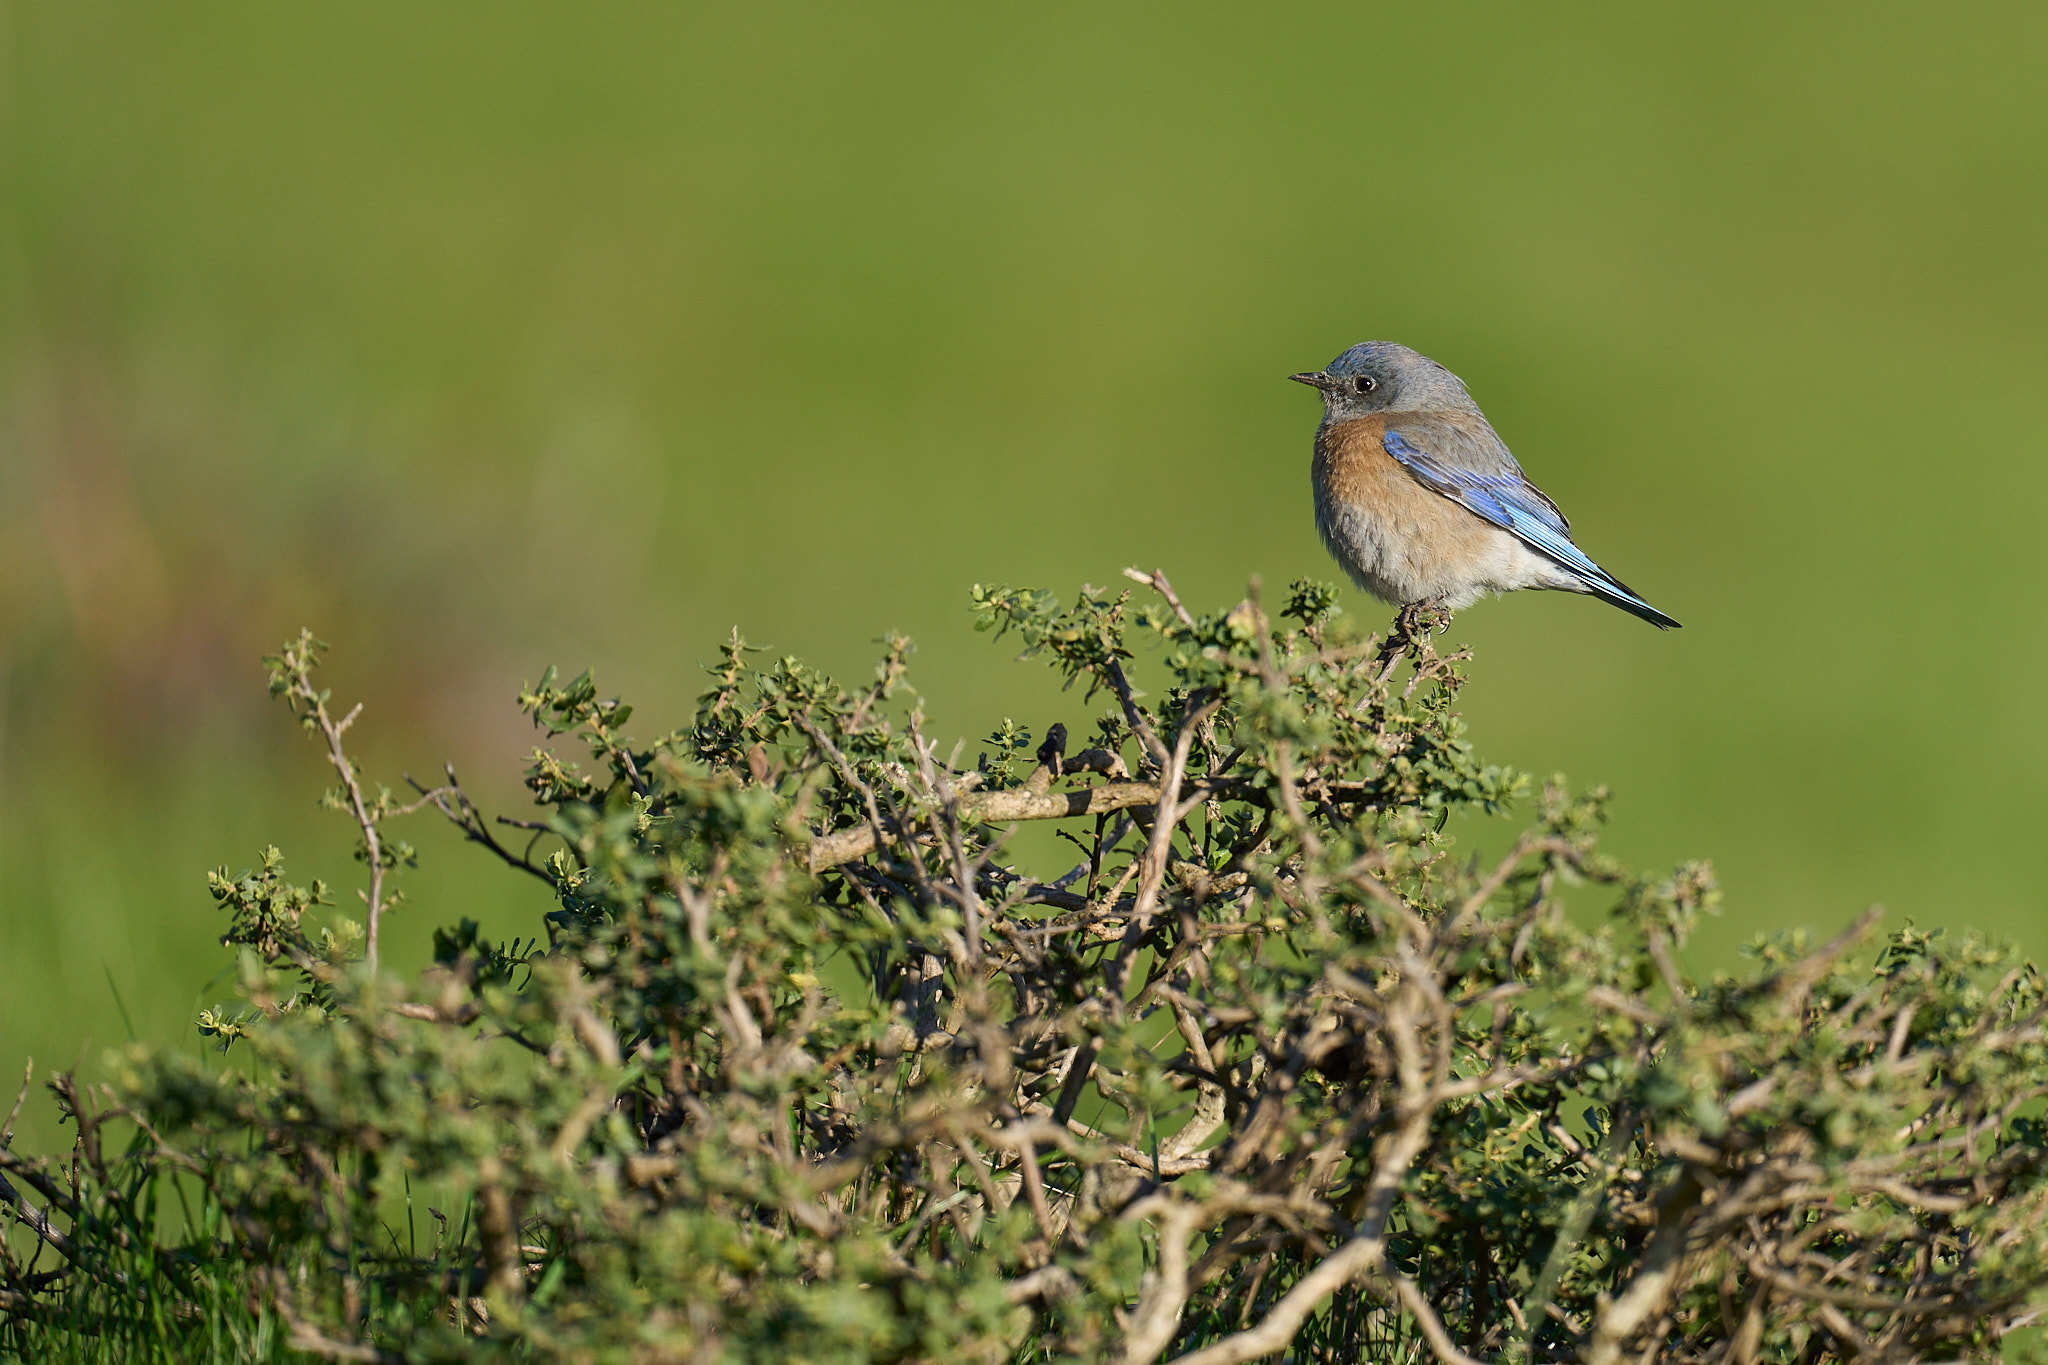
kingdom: Animalia
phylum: Chordata
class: Aves
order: Passeriformes
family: Turdidae
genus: Sialia
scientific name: Sialia mexicana
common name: Western bluebird
